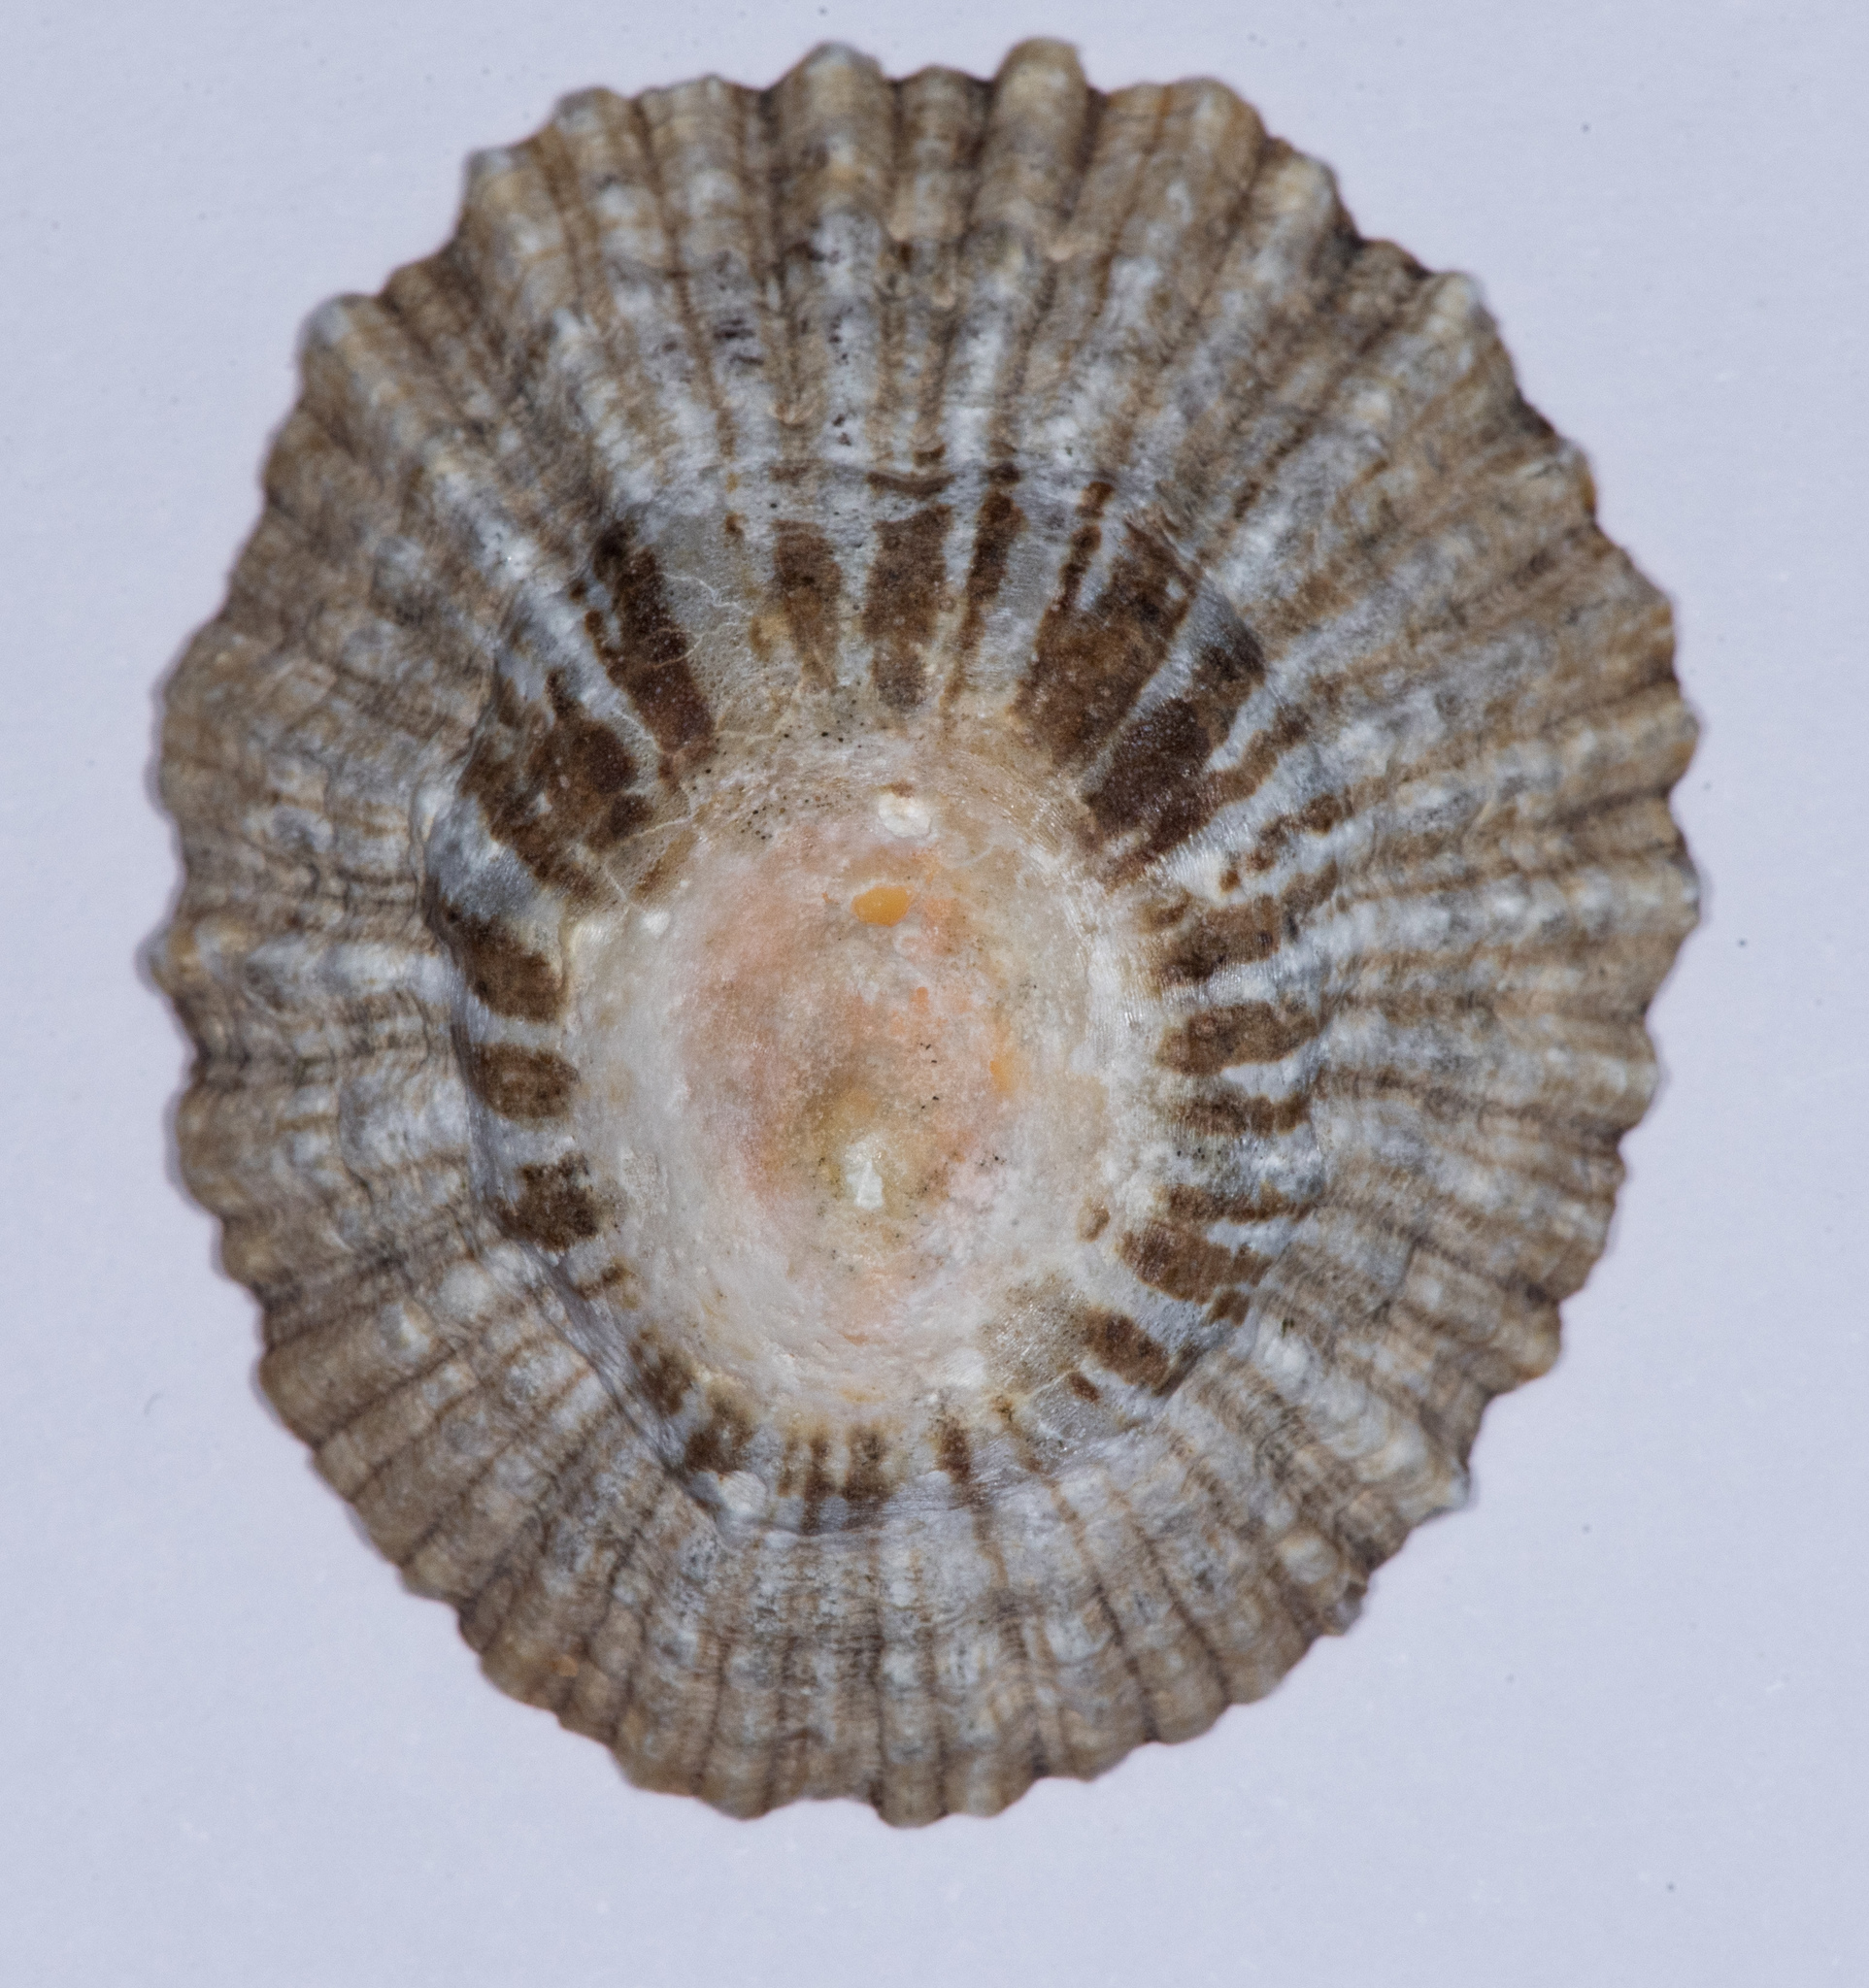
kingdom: Animalia
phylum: Mollusca
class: Gastropoda
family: Patellidae
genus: Patella
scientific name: Patella
